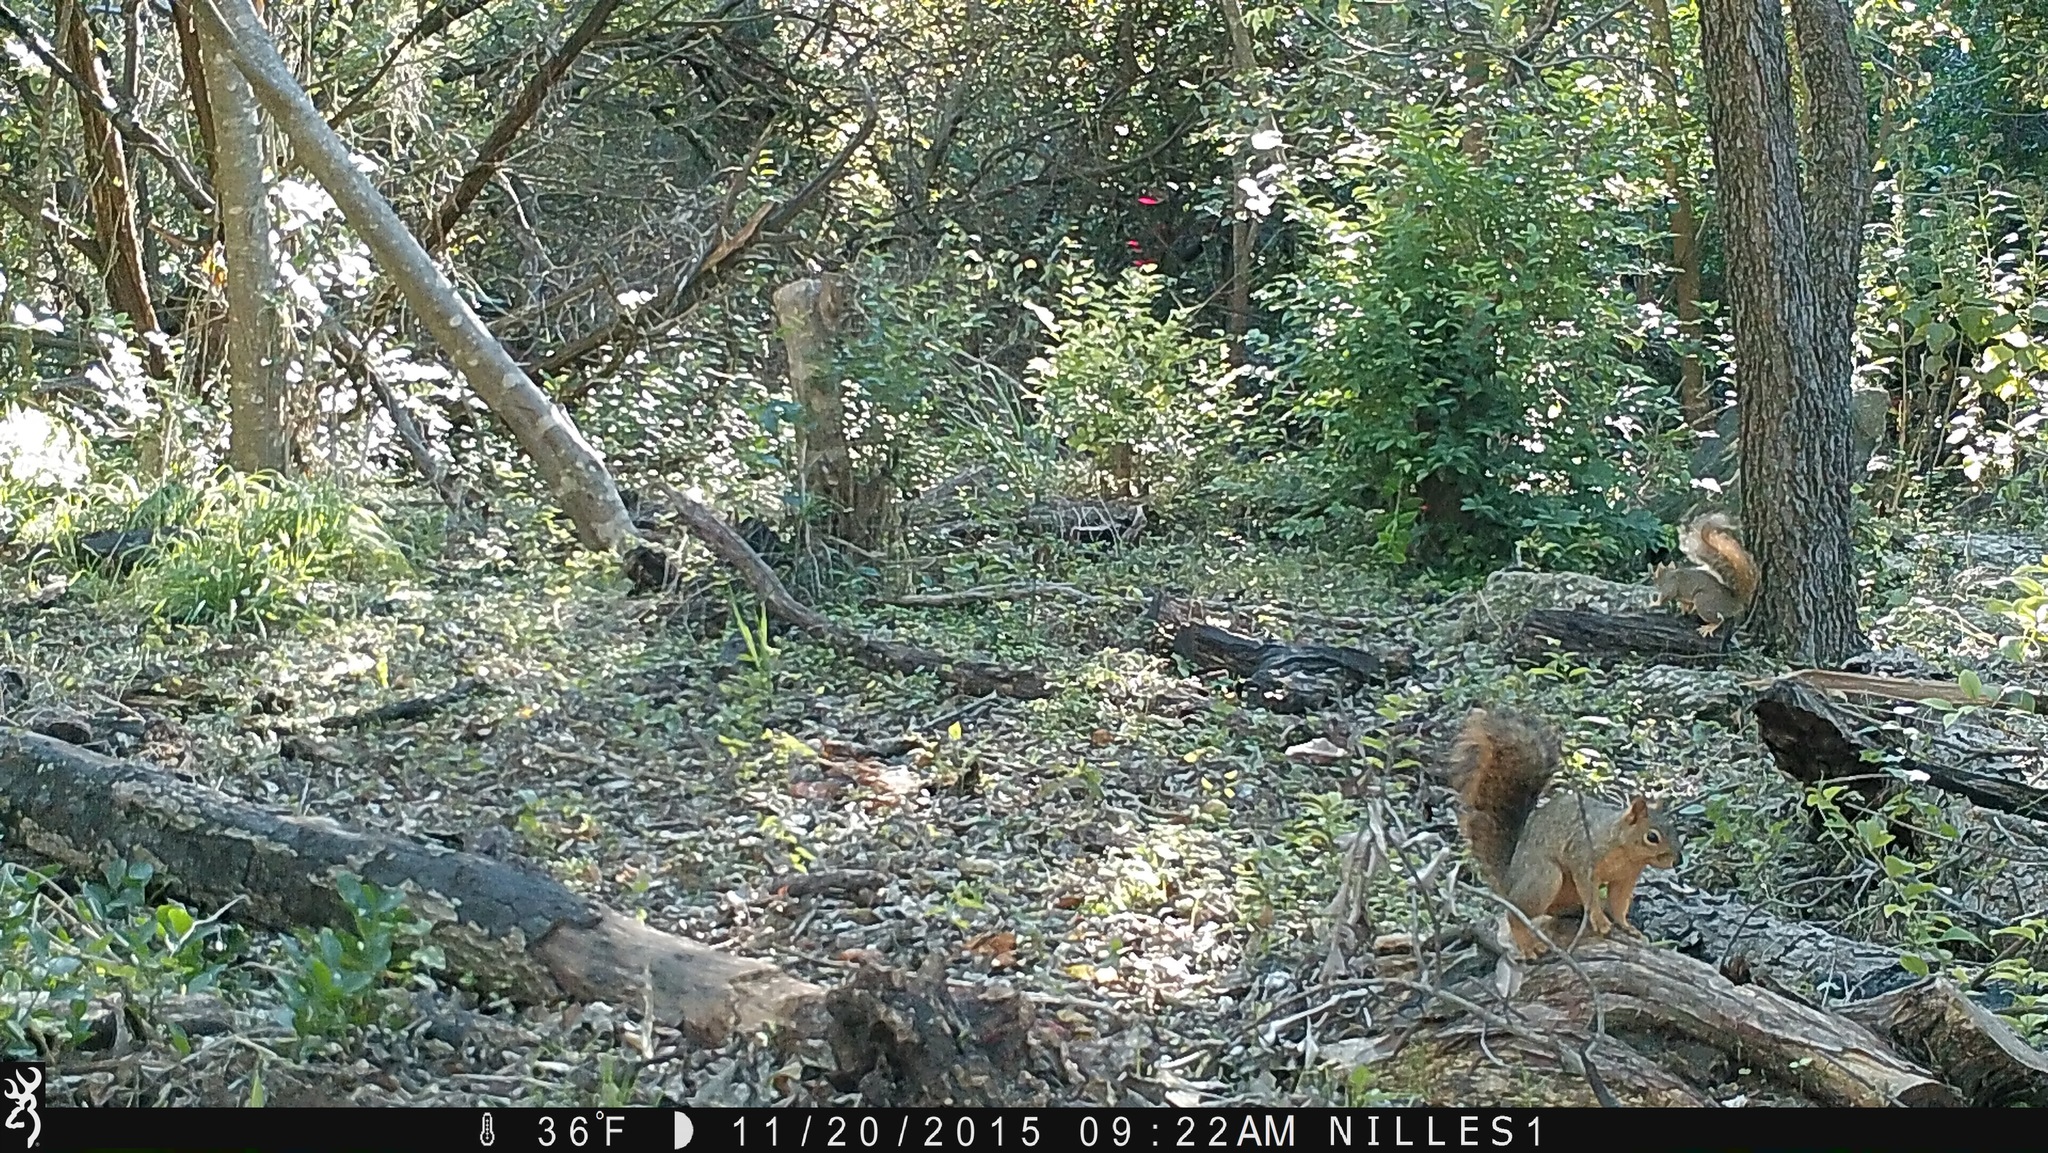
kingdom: Animalia
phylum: Chordata
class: Mammalia
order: Rodentia
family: Sciuridae
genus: Sciurus
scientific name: Sciurus niger
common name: Fox squirrel
